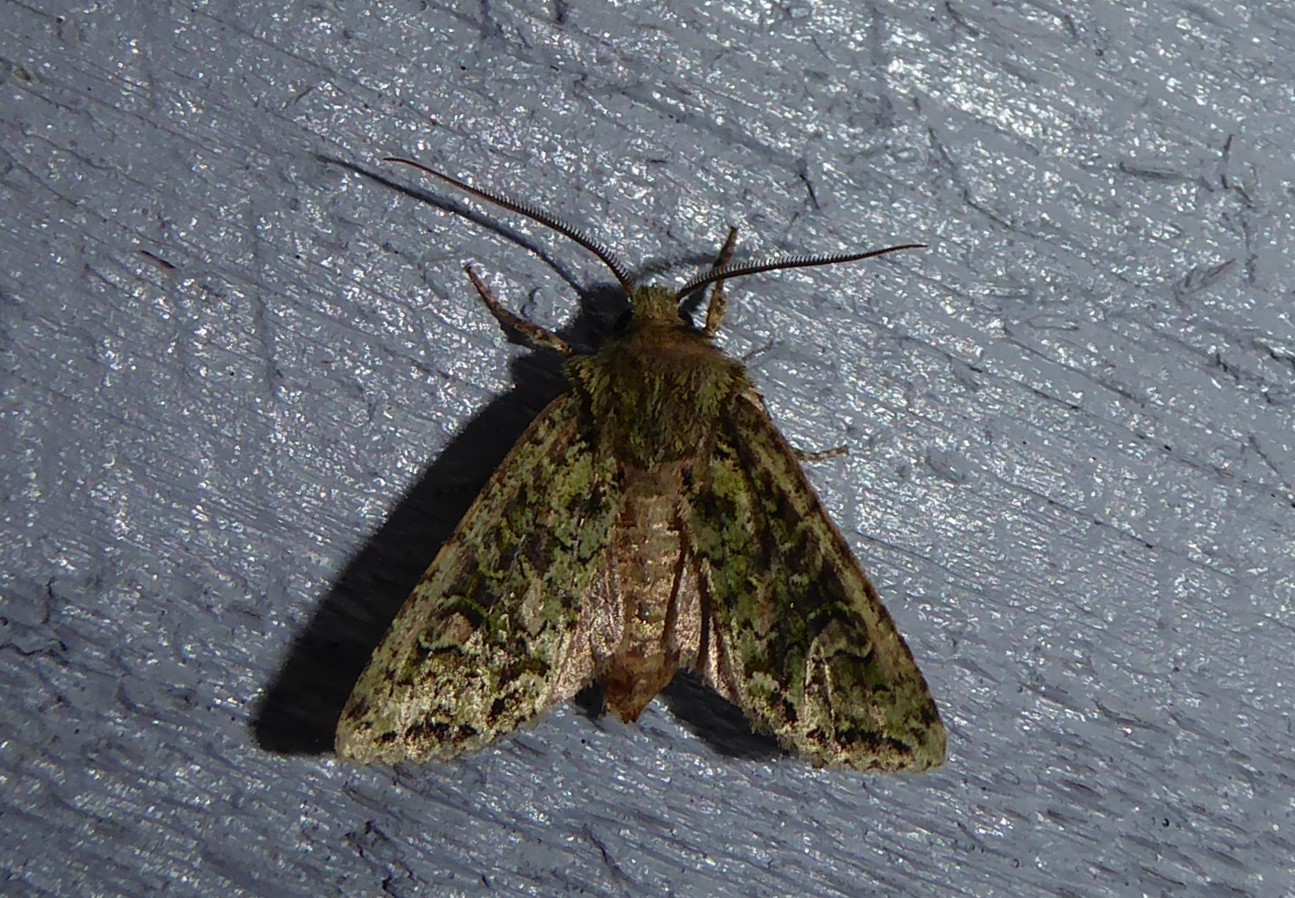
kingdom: Animalia
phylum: Arthropoda
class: Insecta
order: Lepidoptera
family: Noctuidae
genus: Ichneutica
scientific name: Ichneutica
